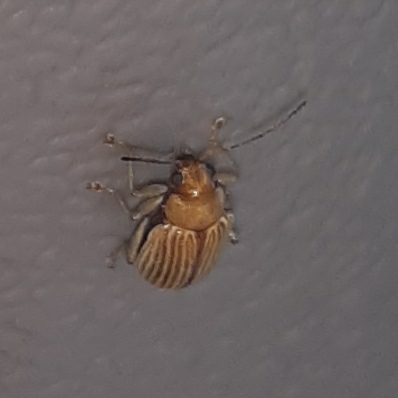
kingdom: Animalia
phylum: Arthropoda
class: Insecta
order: Coleoptera
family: Chrysomelidae
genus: Colaspis
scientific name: Colaspis brunnea
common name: Grape colaspis
